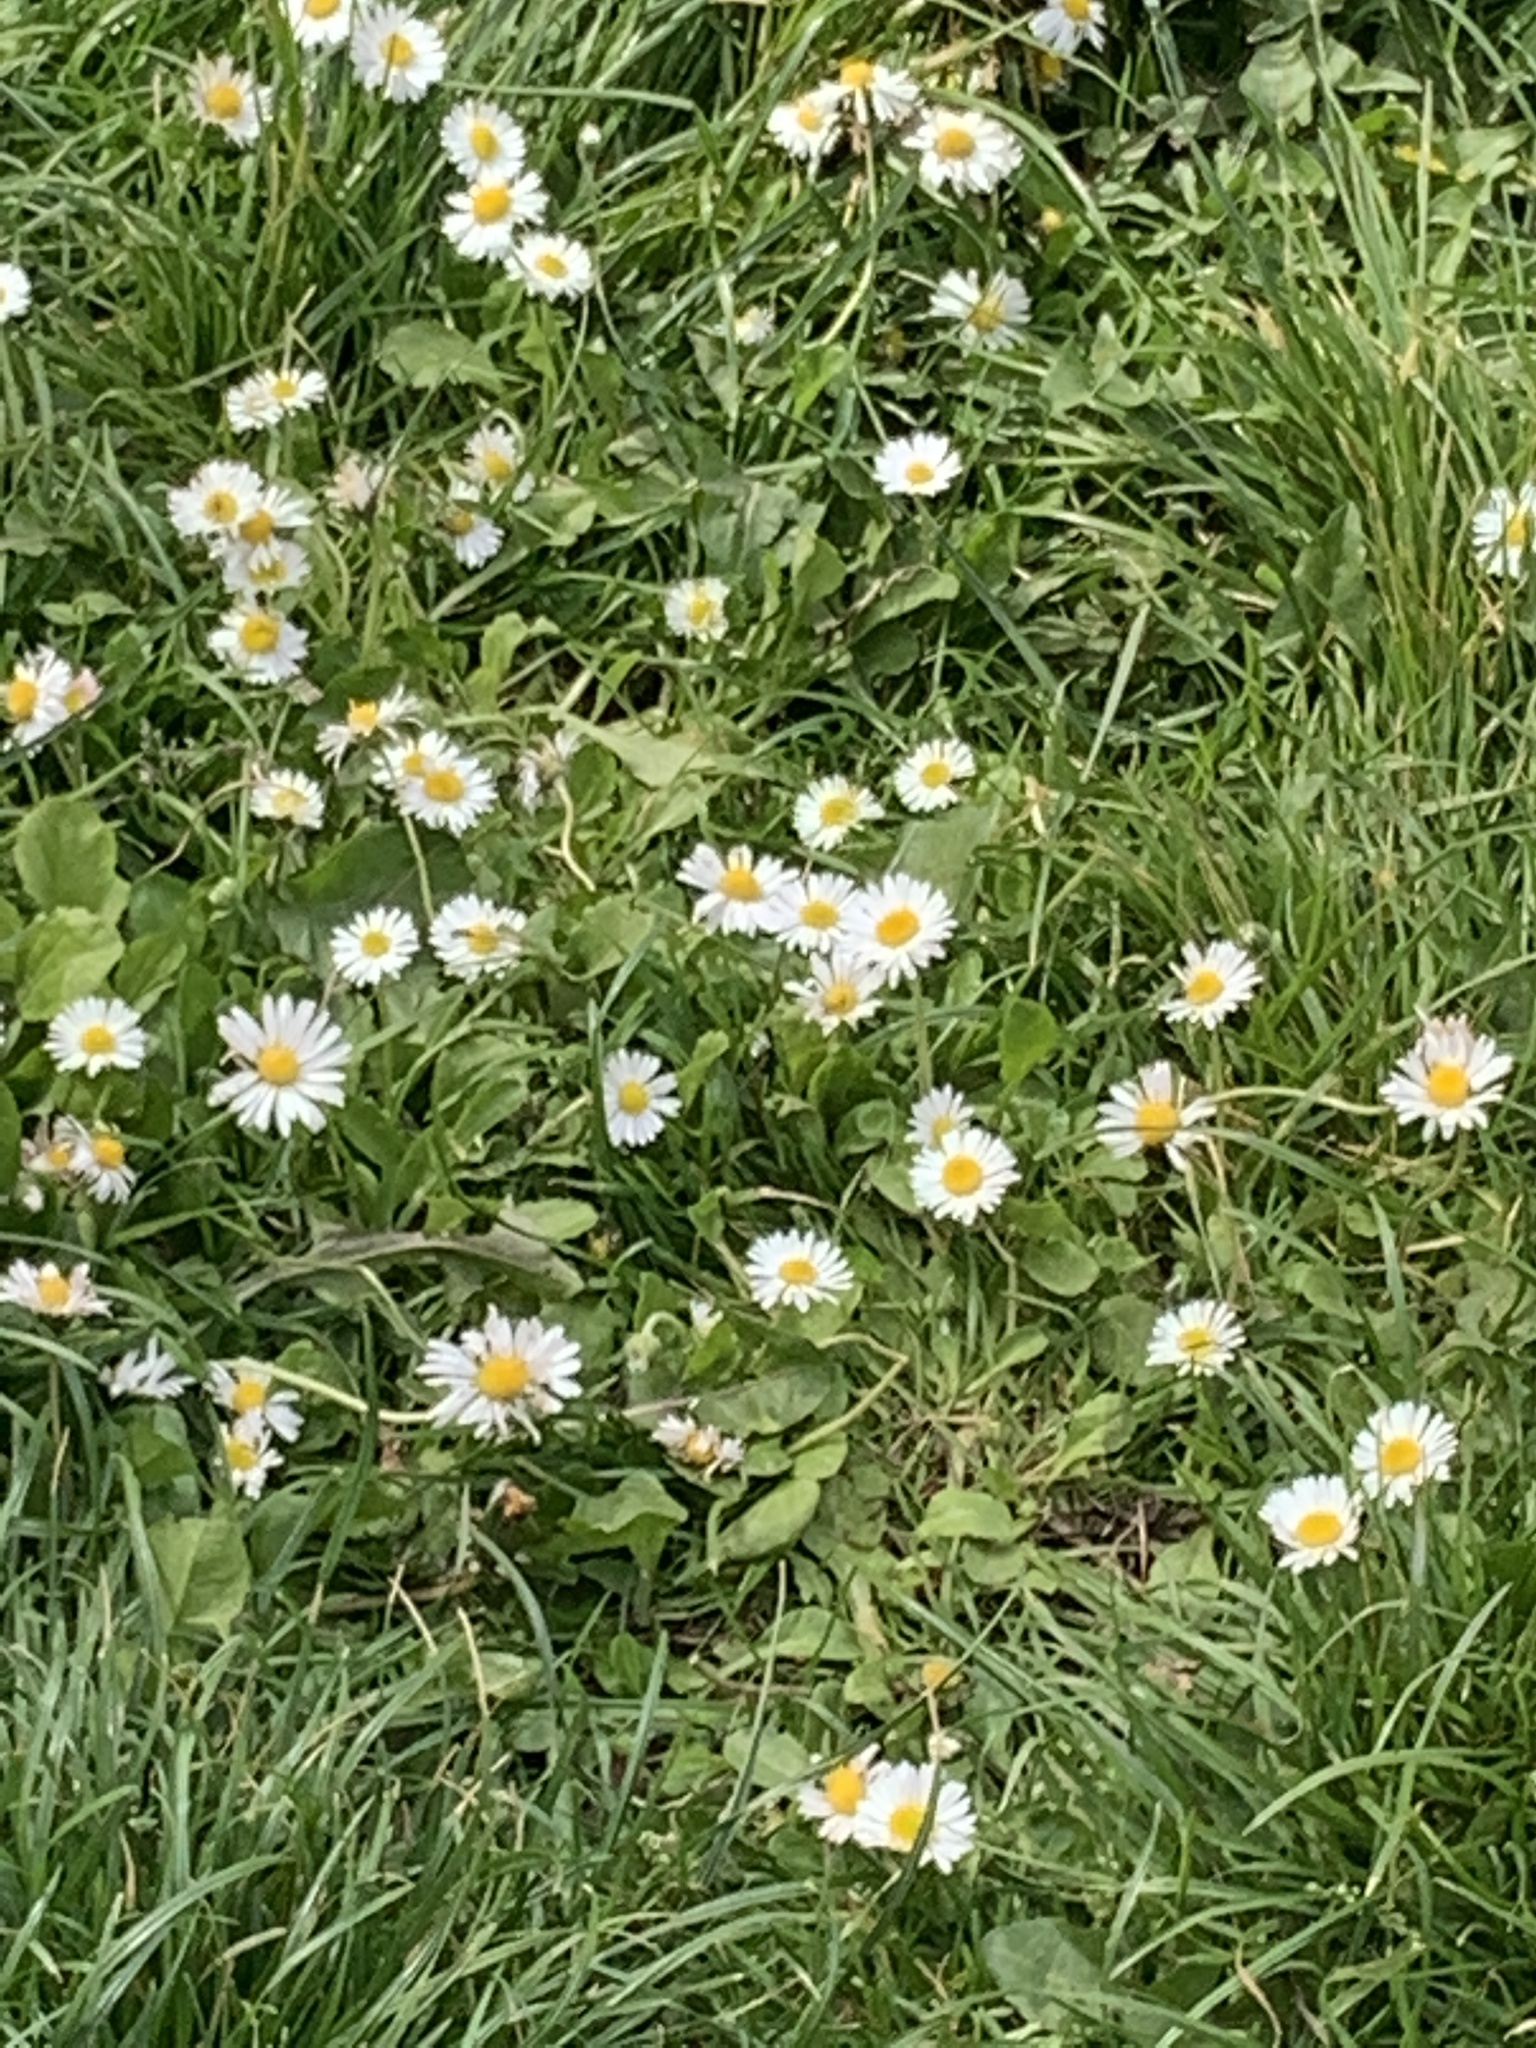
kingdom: Plantae
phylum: Tracheophyta
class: Magnoliopsida
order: Asterales
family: Asteraceae
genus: Bellis
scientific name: Bellis perennis
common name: Lawndaisy
